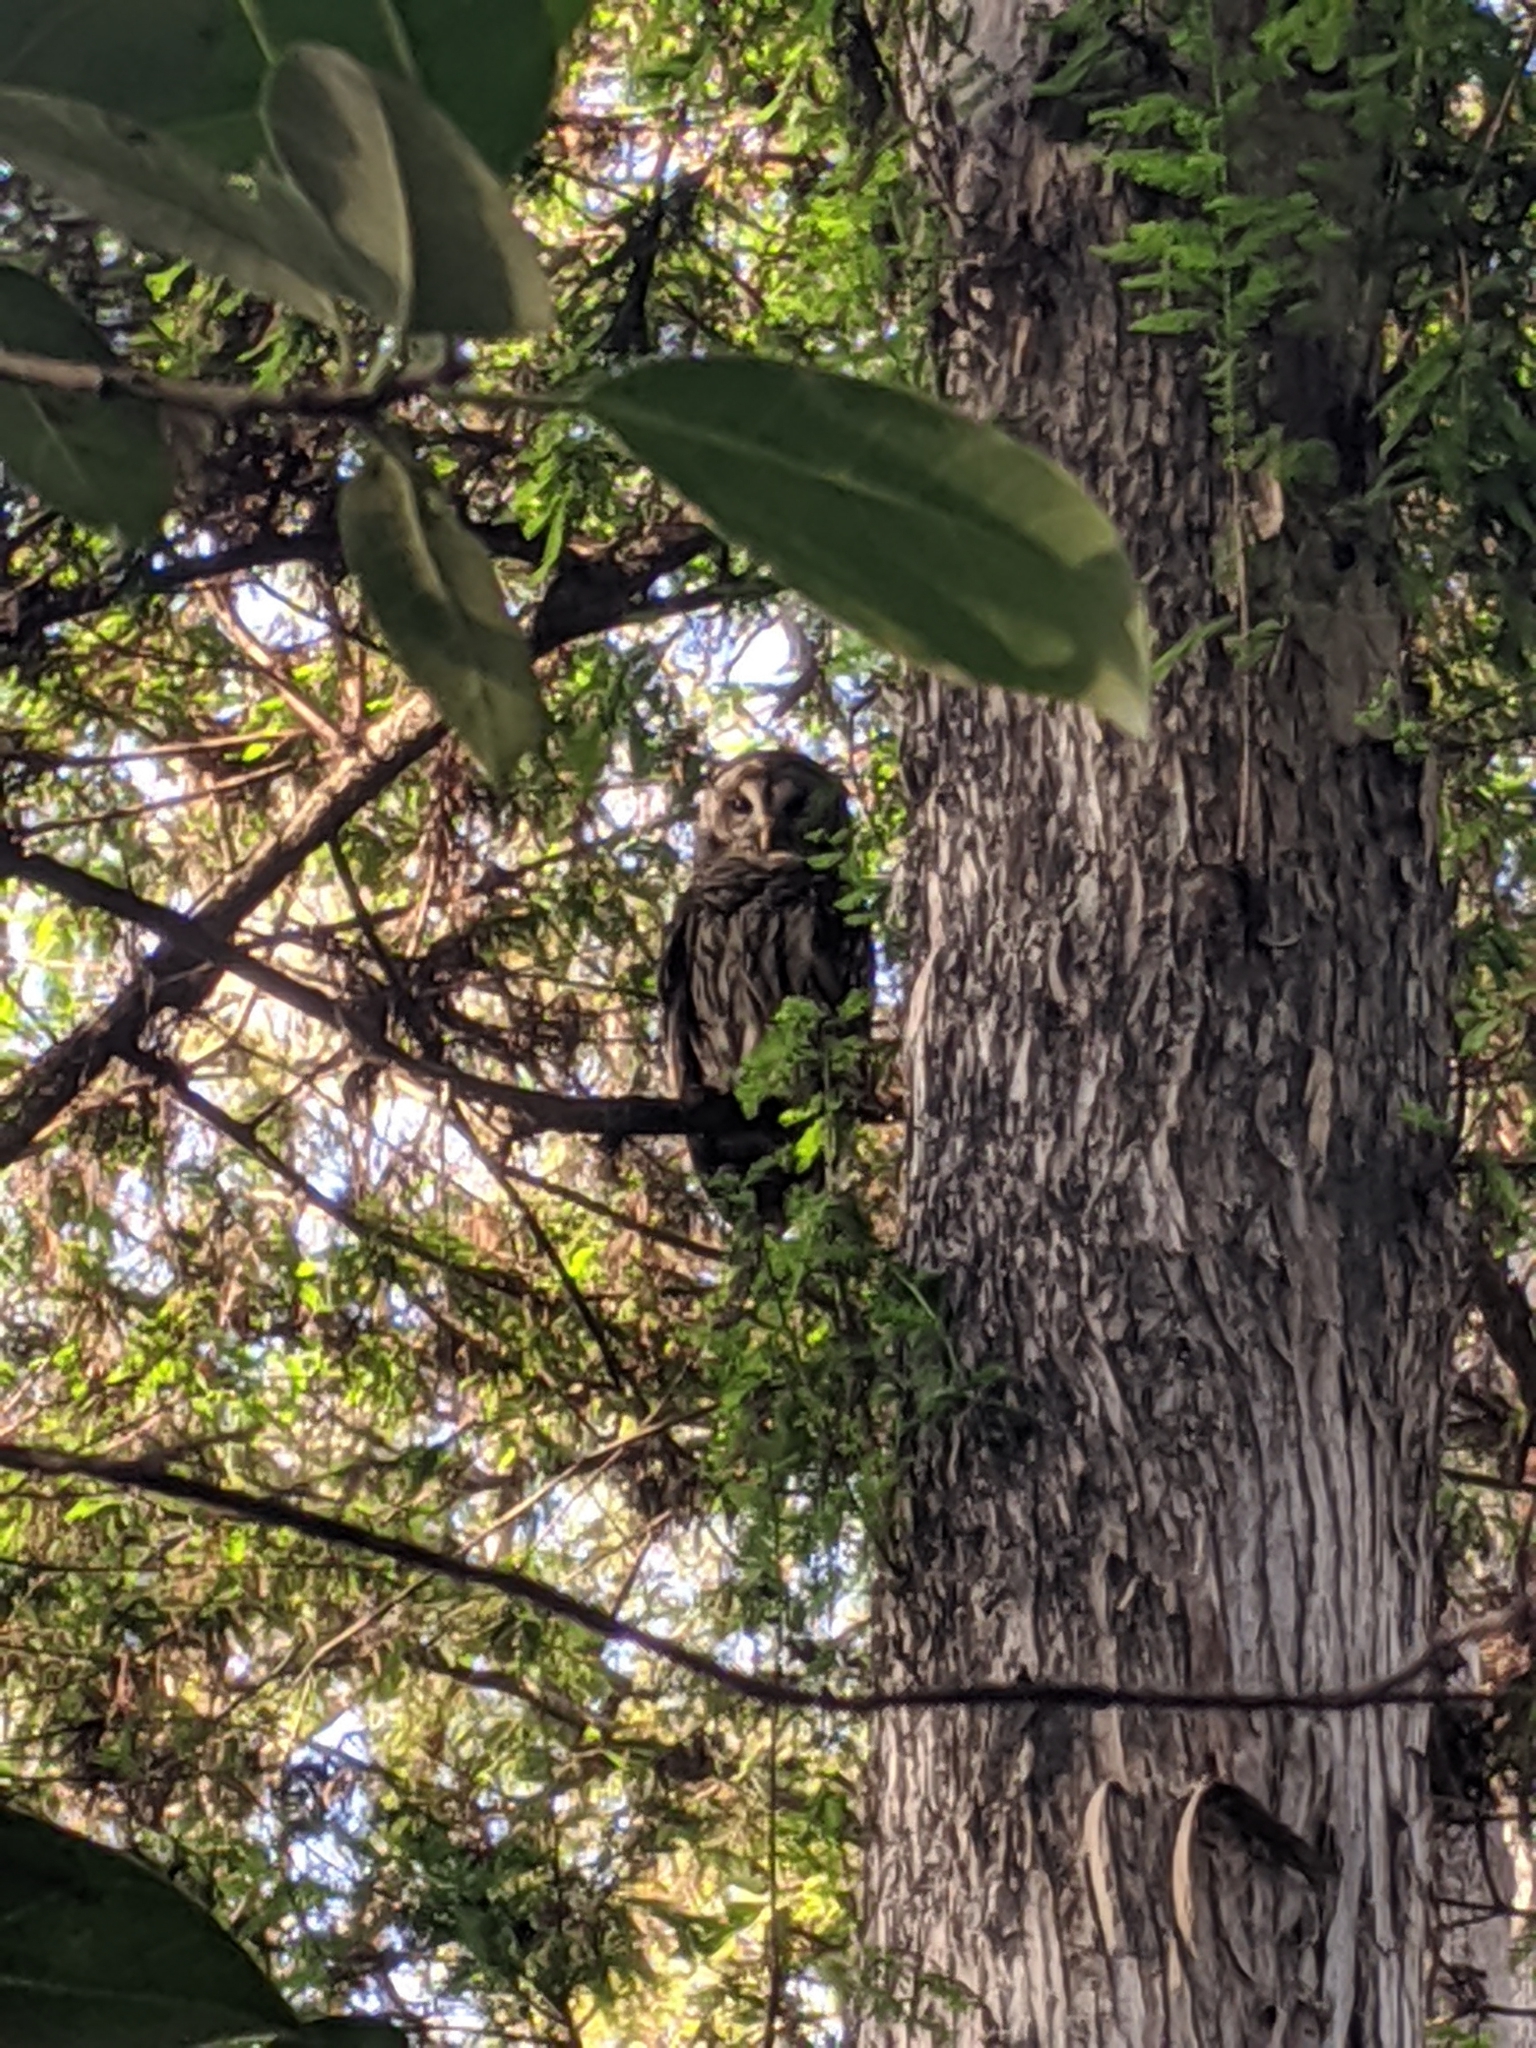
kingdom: Animalia
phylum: Chordata
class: Aves
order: Strigiformes
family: Strigidae
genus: Strix
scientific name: Strix varia
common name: Barred owl
